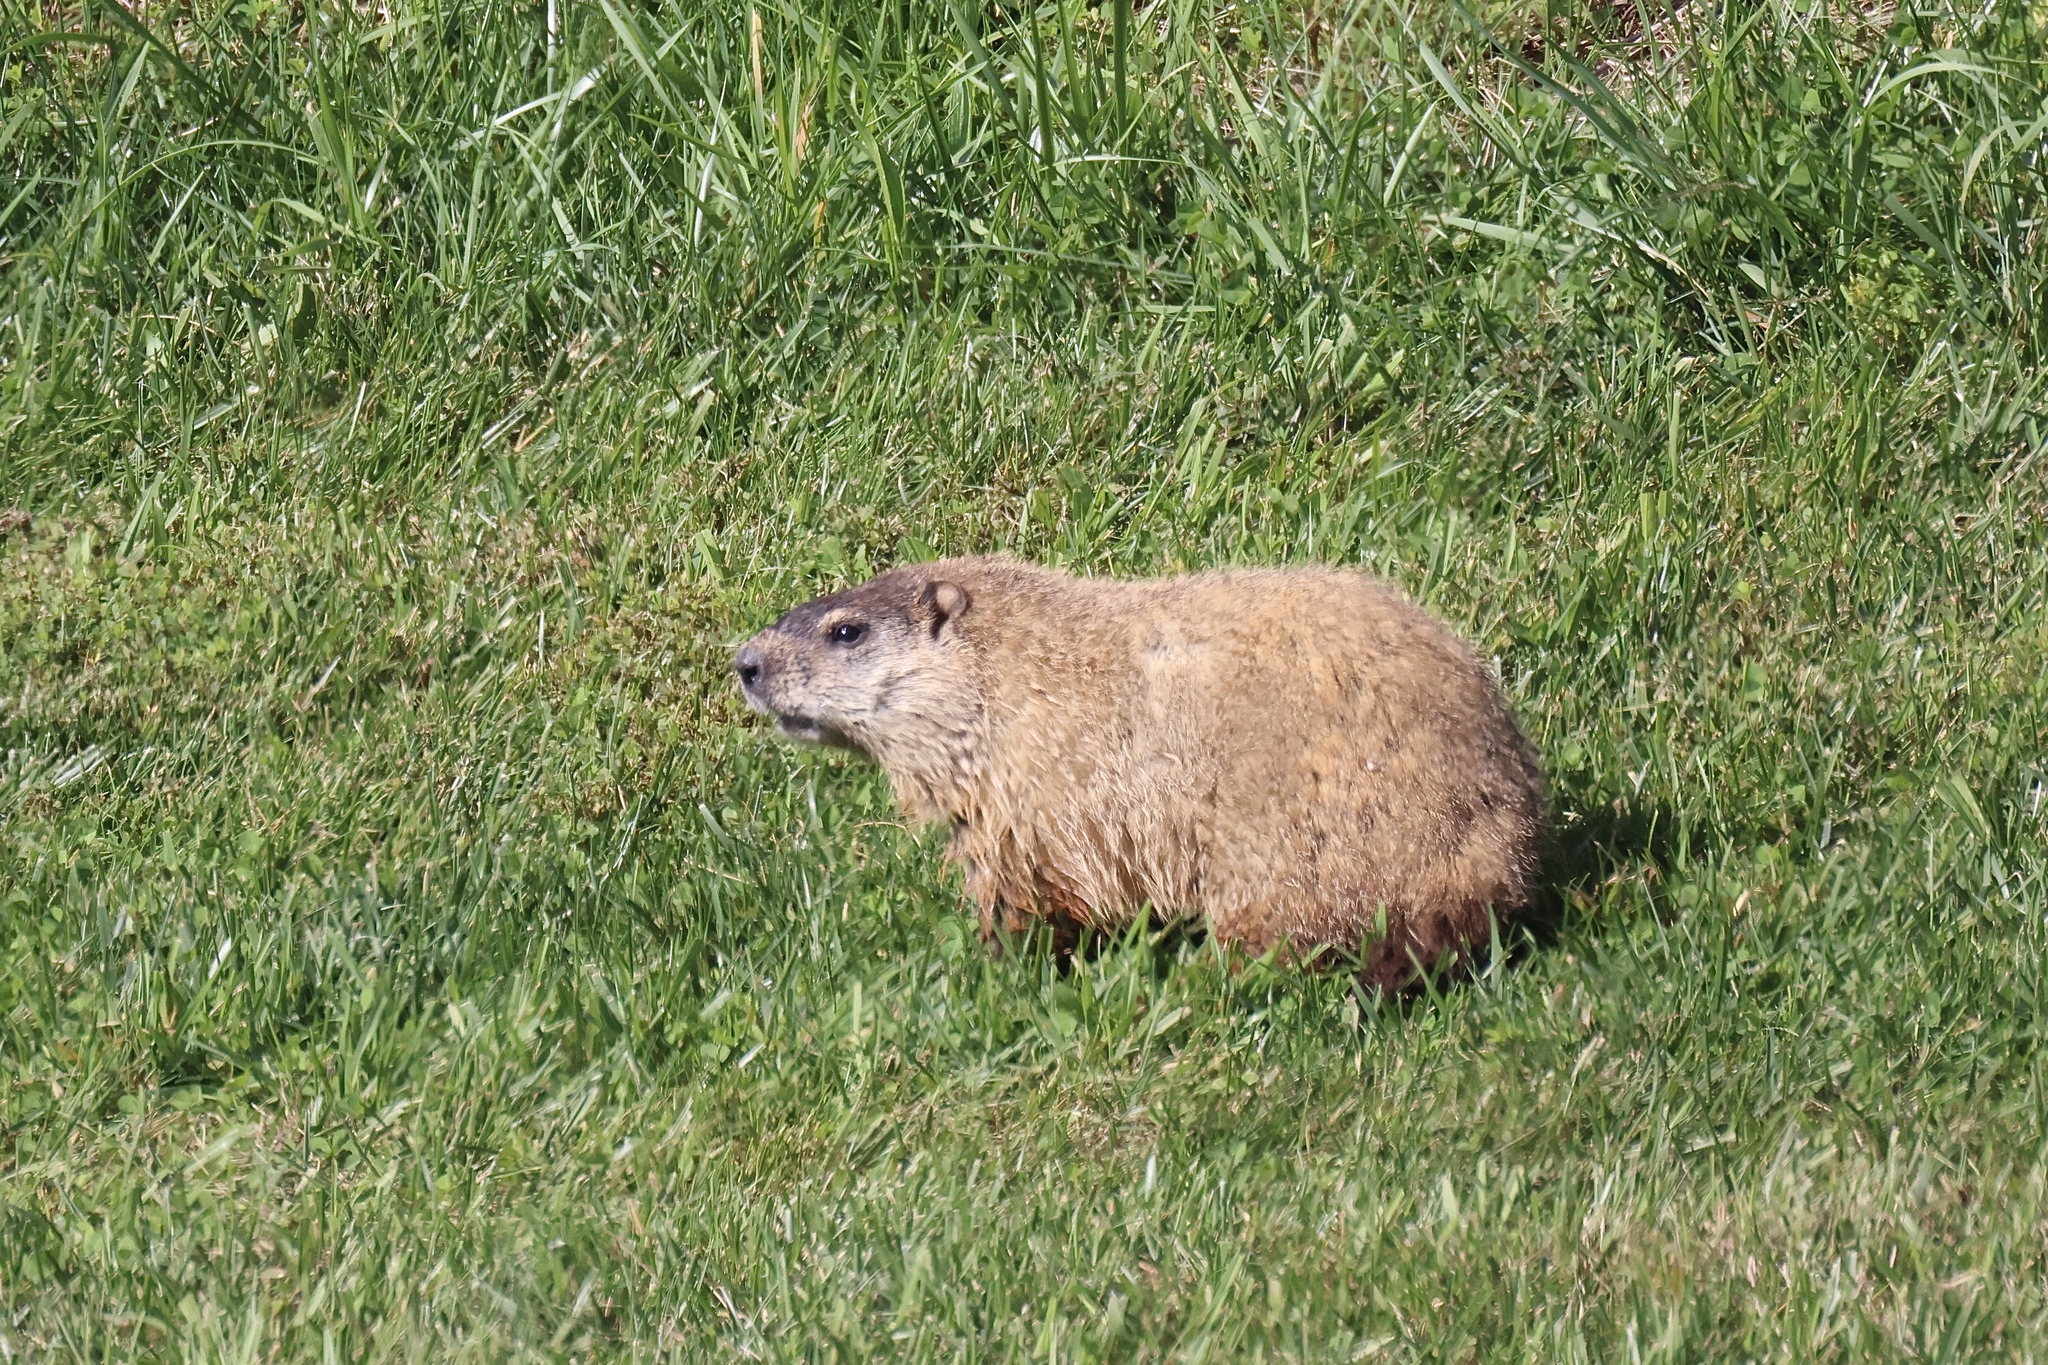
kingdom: Animalia
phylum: Chordata
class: Mammalia
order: Rodentia
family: Sciuridae
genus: Marmota
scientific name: Marmota monax
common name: Groundhog
